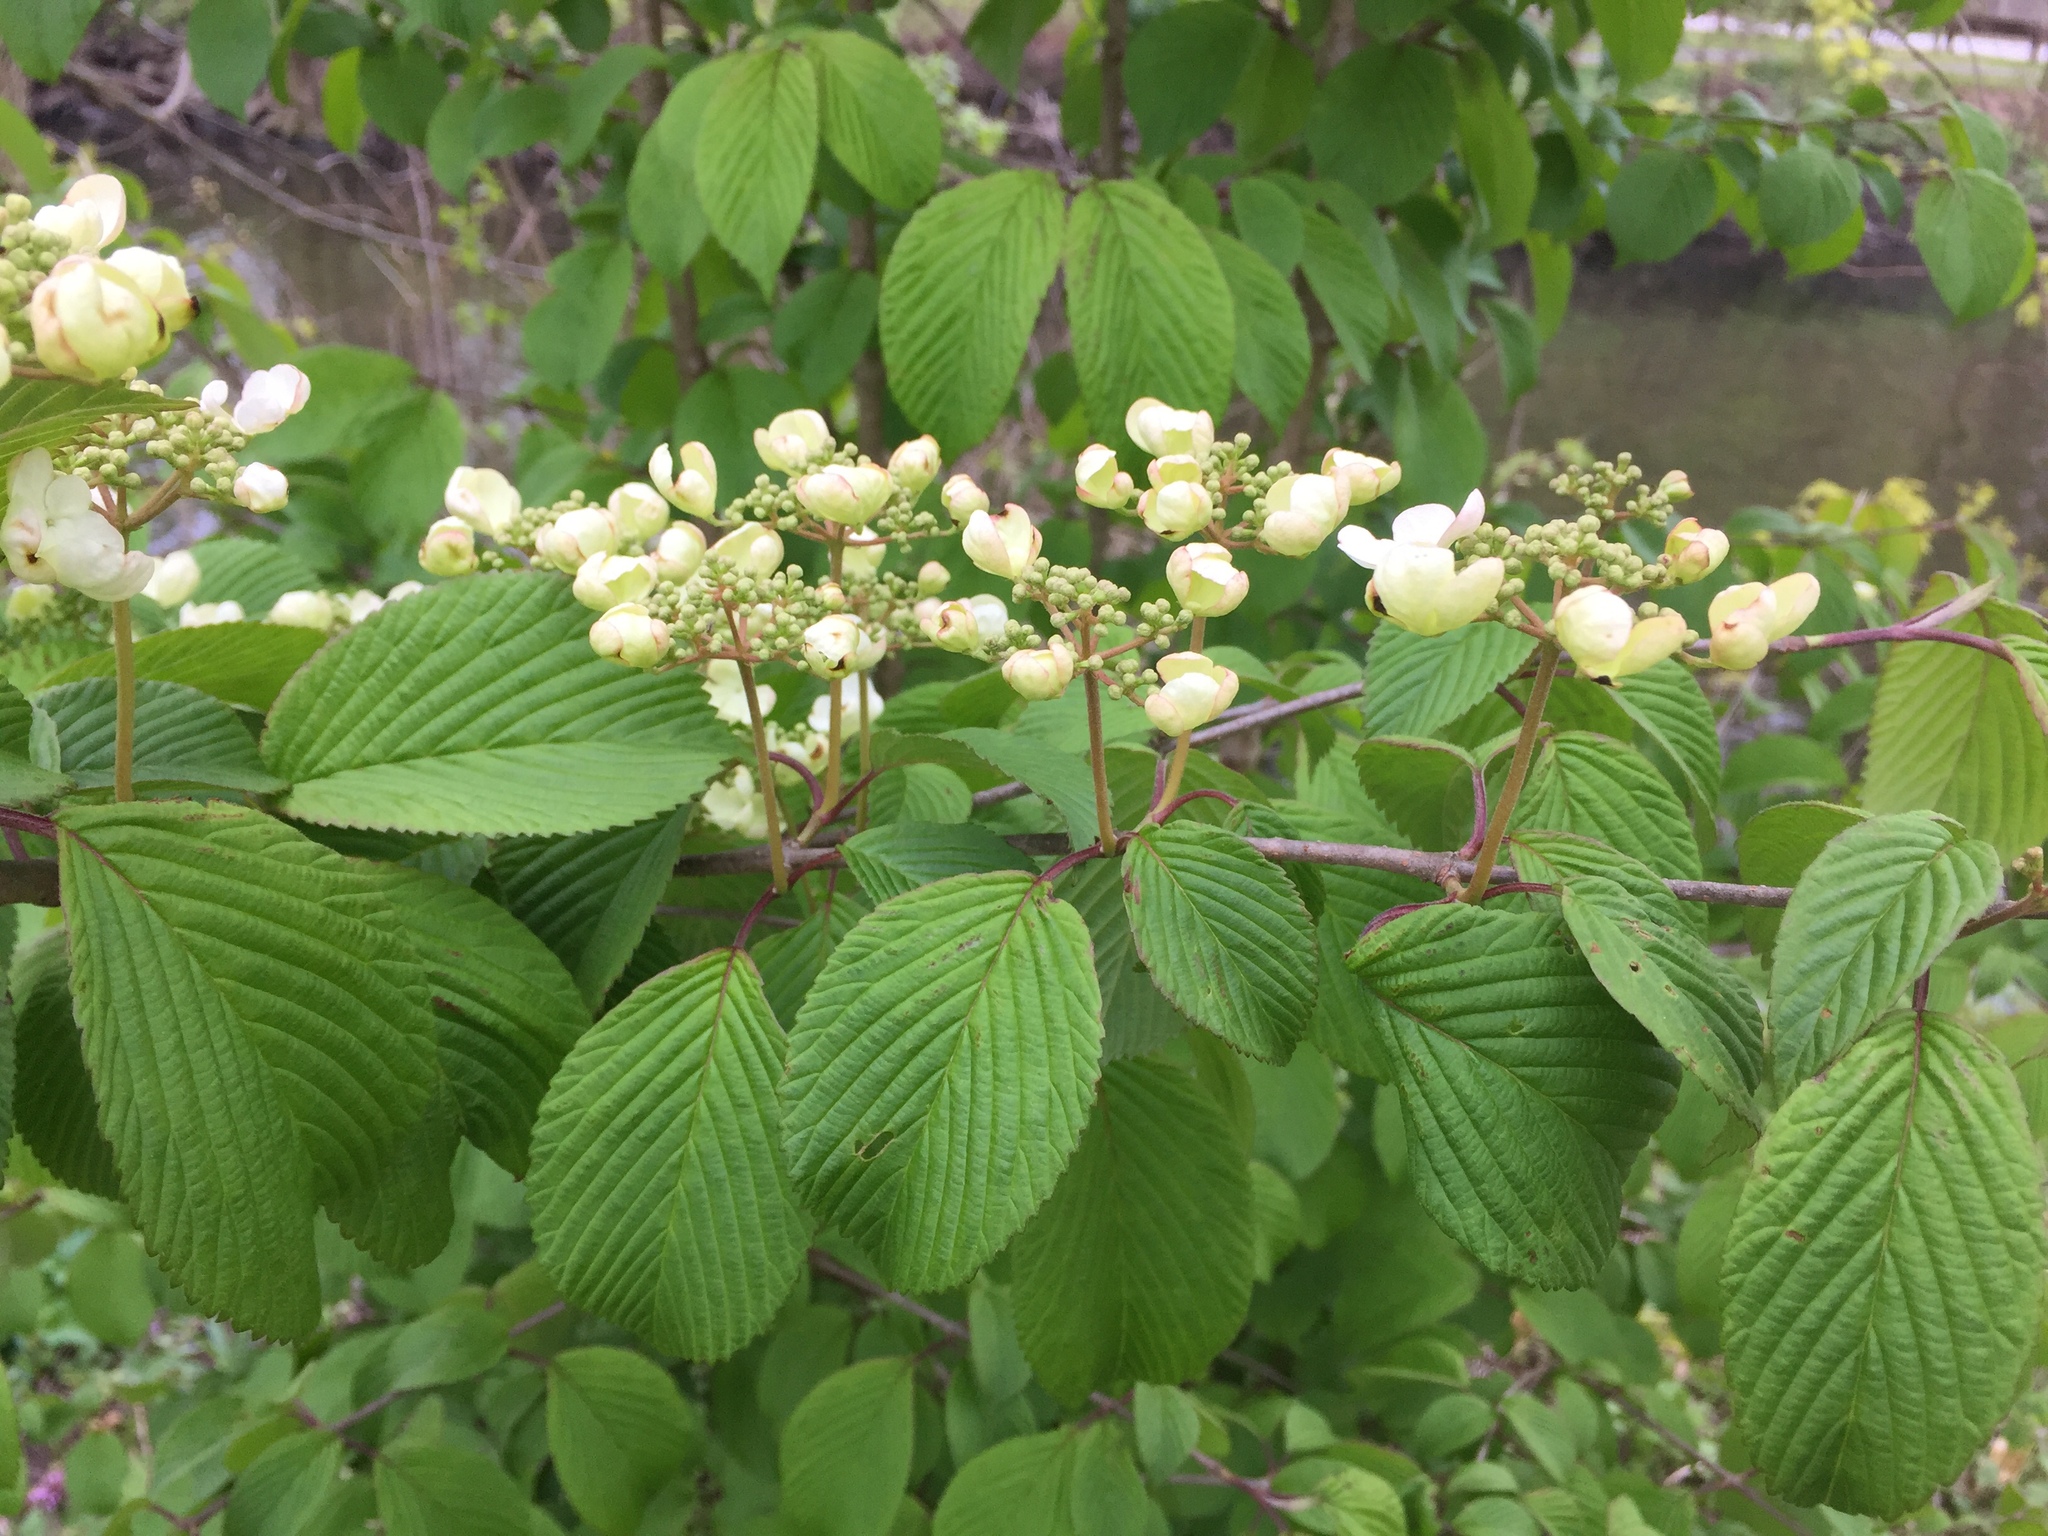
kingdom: Plantae
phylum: Tracheophyta
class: Magnoliopsida
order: Dipsacales
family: Viburnaceae
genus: Viburnum
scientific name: Viburnum plicatum
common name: Japanese snowball
